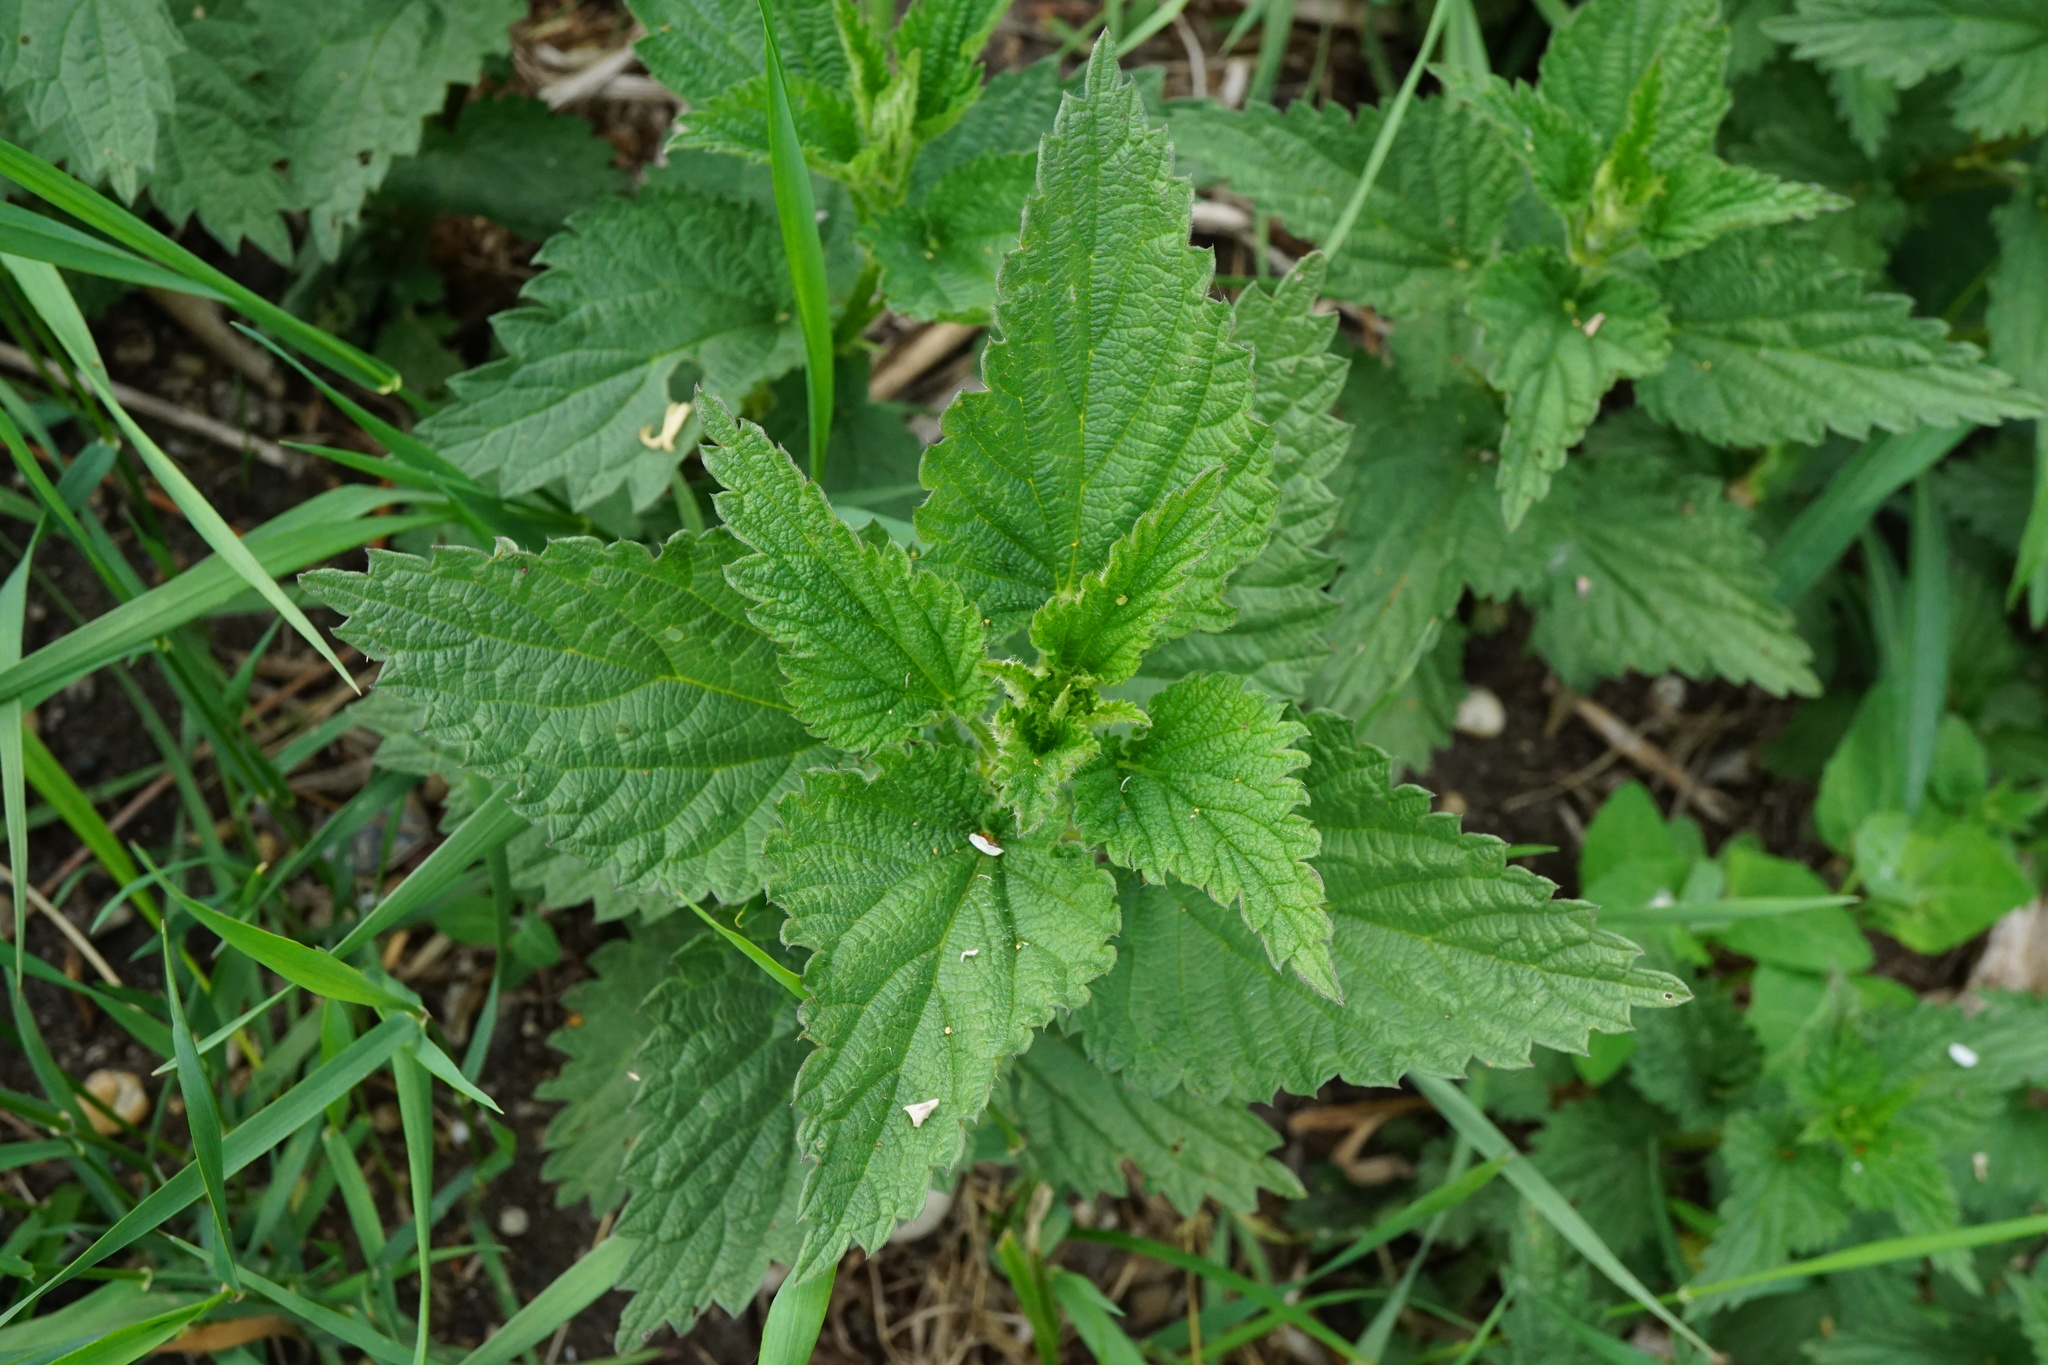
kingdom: Plantae
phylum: Tracheophyta
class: Magnoliopsida
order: Rosales
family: Urticaceae
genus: Urtica
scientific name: Urtica dioica
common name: Common nettle
